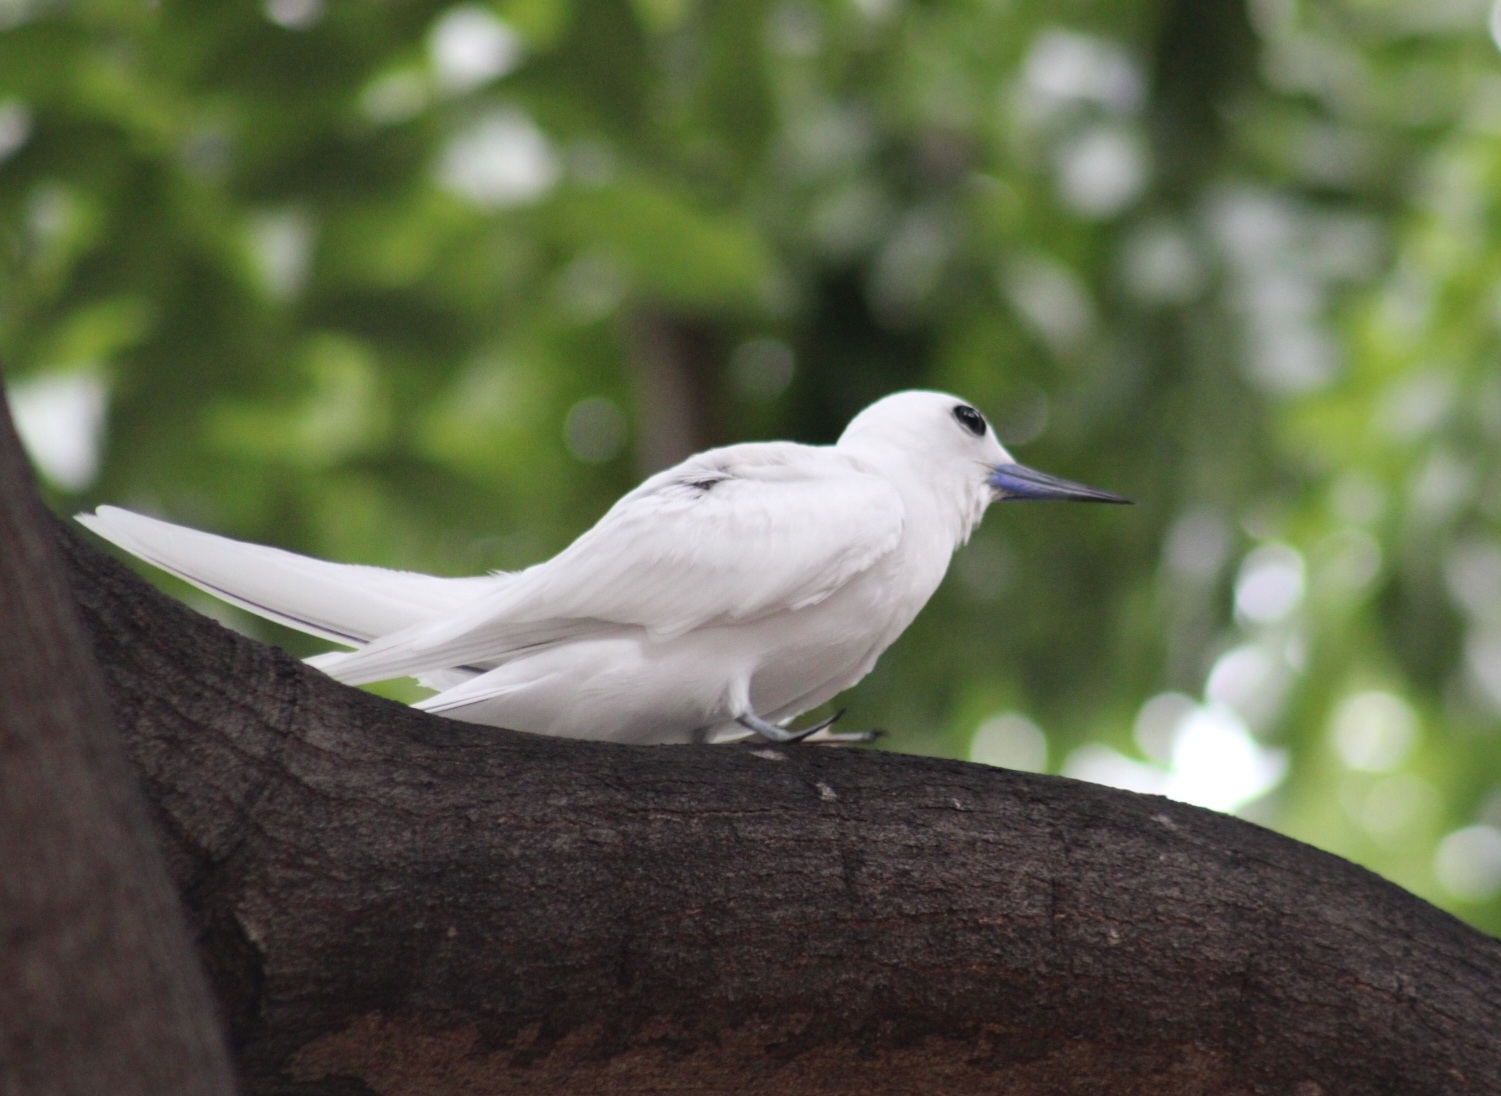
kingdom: Animalia
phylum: Chordata
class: Aves
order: Charadriiformes
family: Laridae
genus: Gygis
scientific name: Gygis alba
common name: White tern
